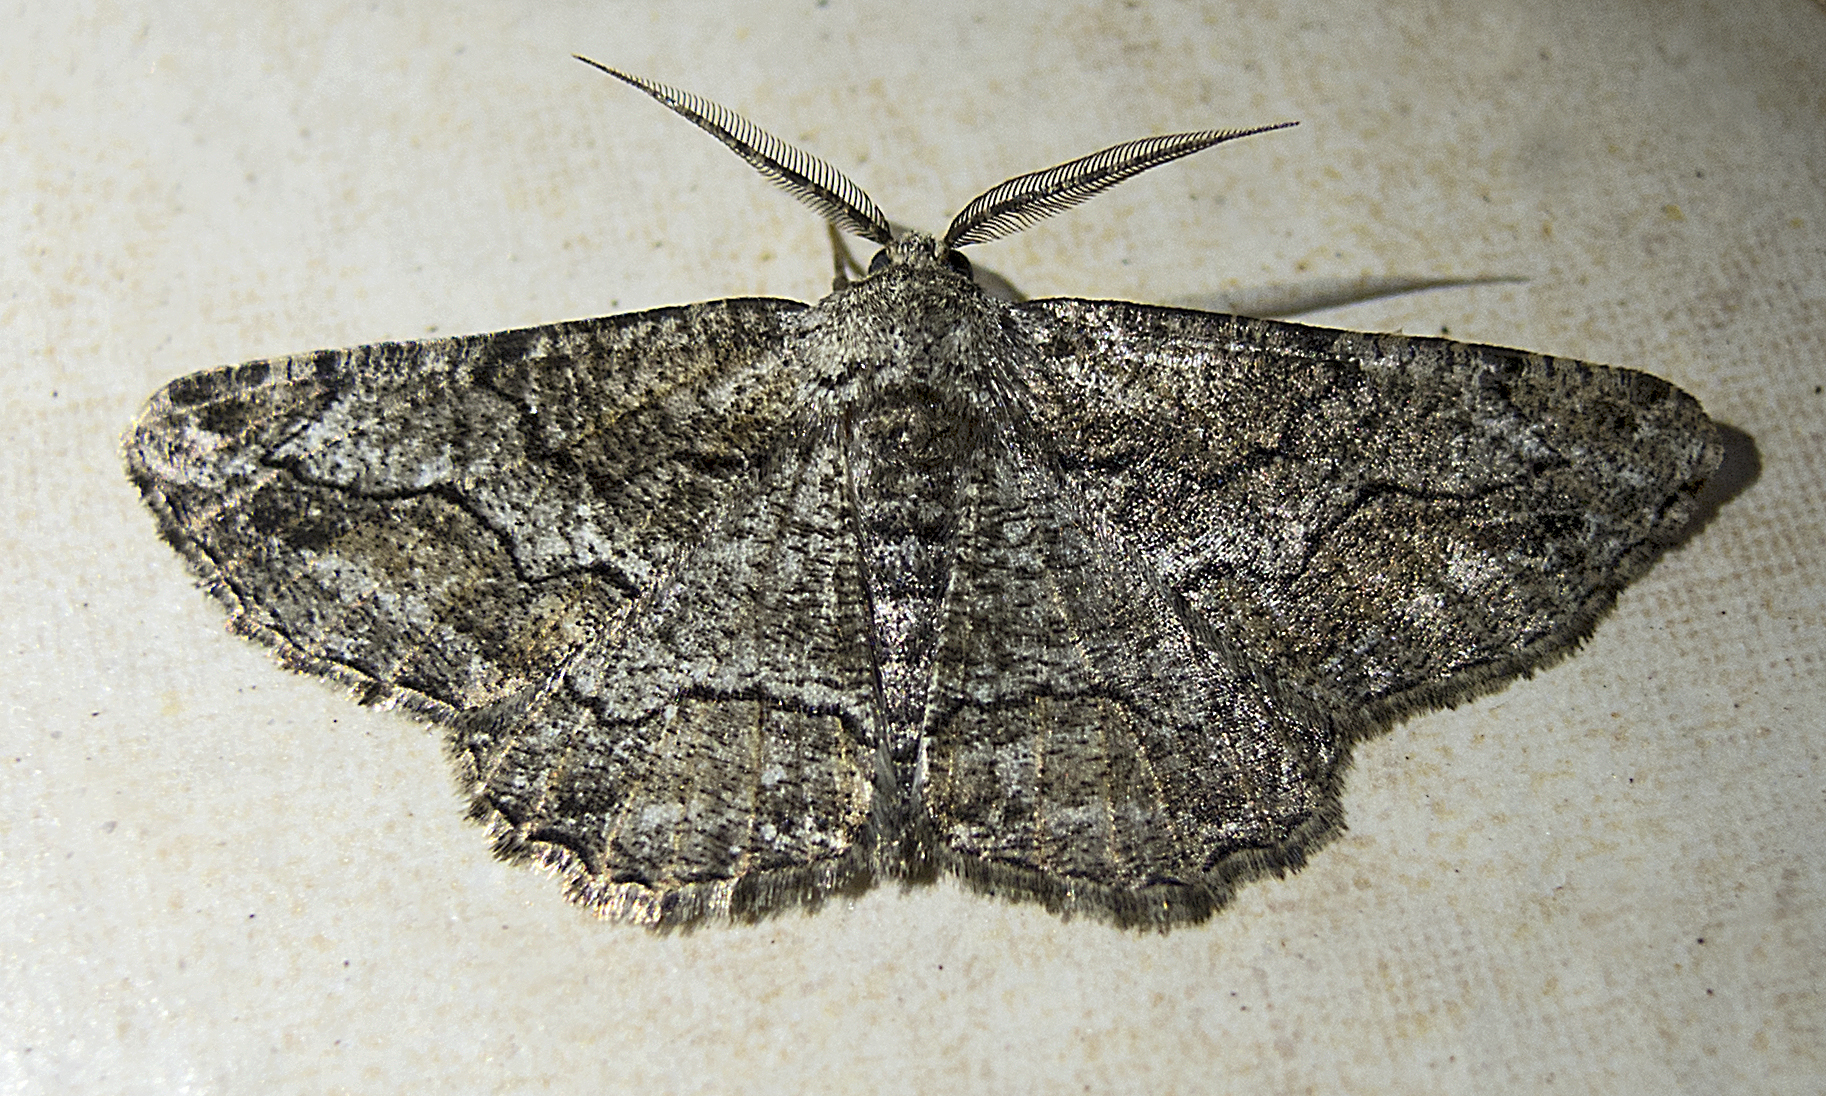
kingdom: Animalia
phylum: Arthropoda
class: Insecta
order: Lepidoptera
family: Geometridae
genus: Synopsia
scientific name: Synopsia sociaria
